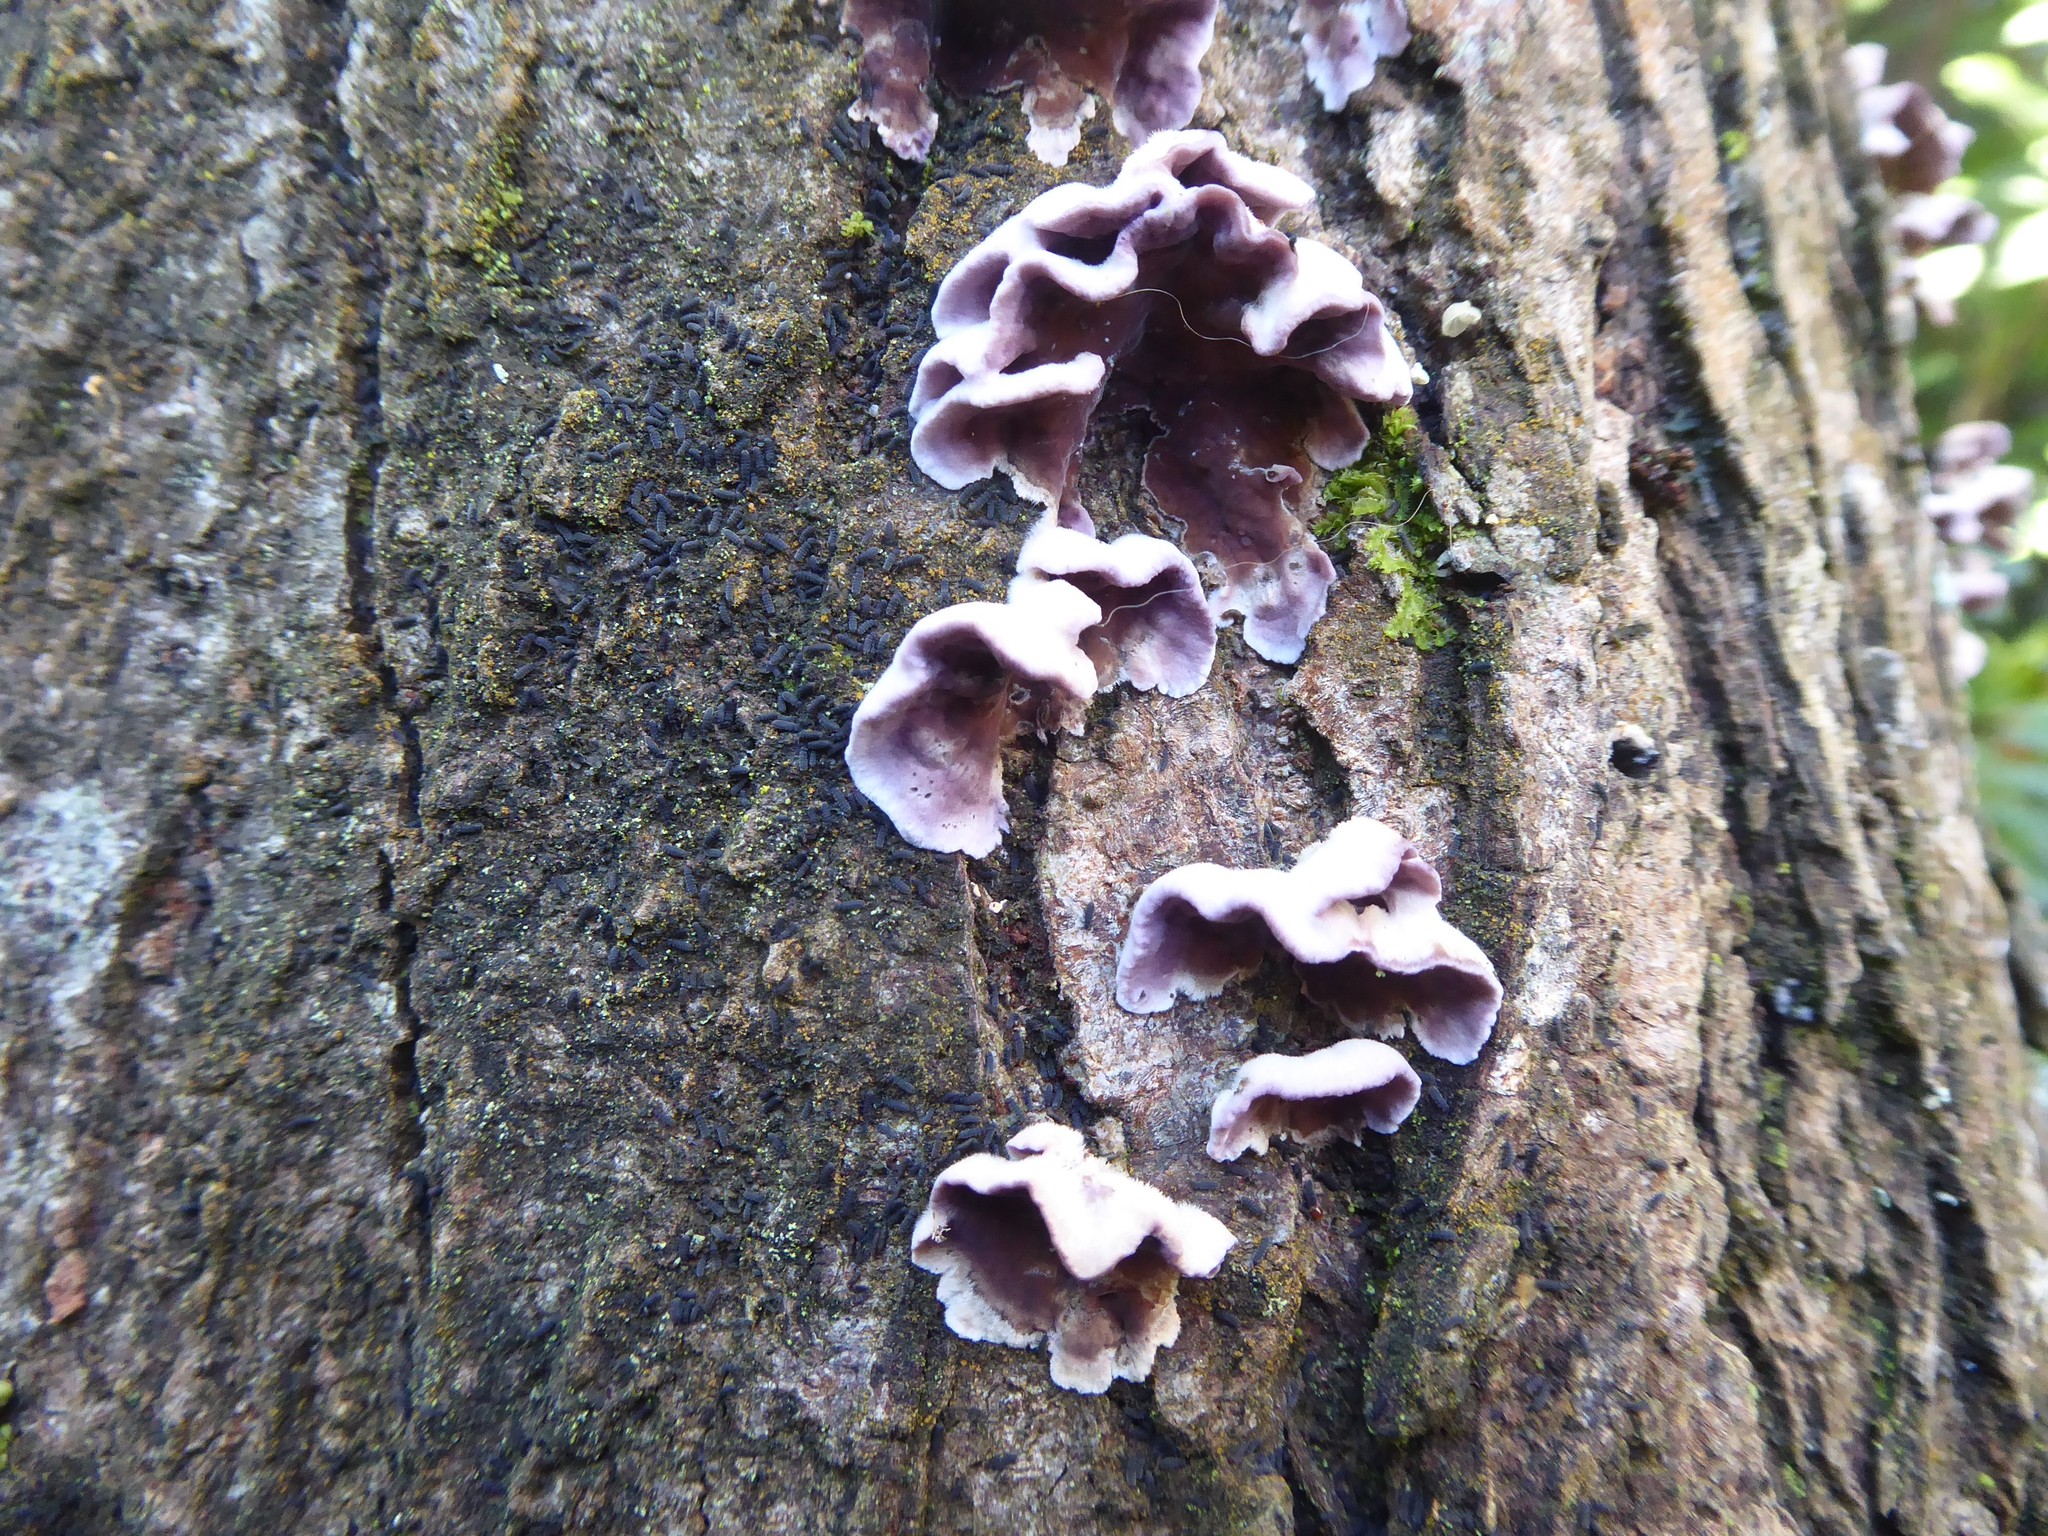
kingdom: Fungi
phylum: Basidiomycota
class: Agaricomycetes
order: Agaricales
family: Cyphellaceae
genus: Chondrostereum
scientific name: Chondrostereum purpureum
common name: Silver leaf disease
